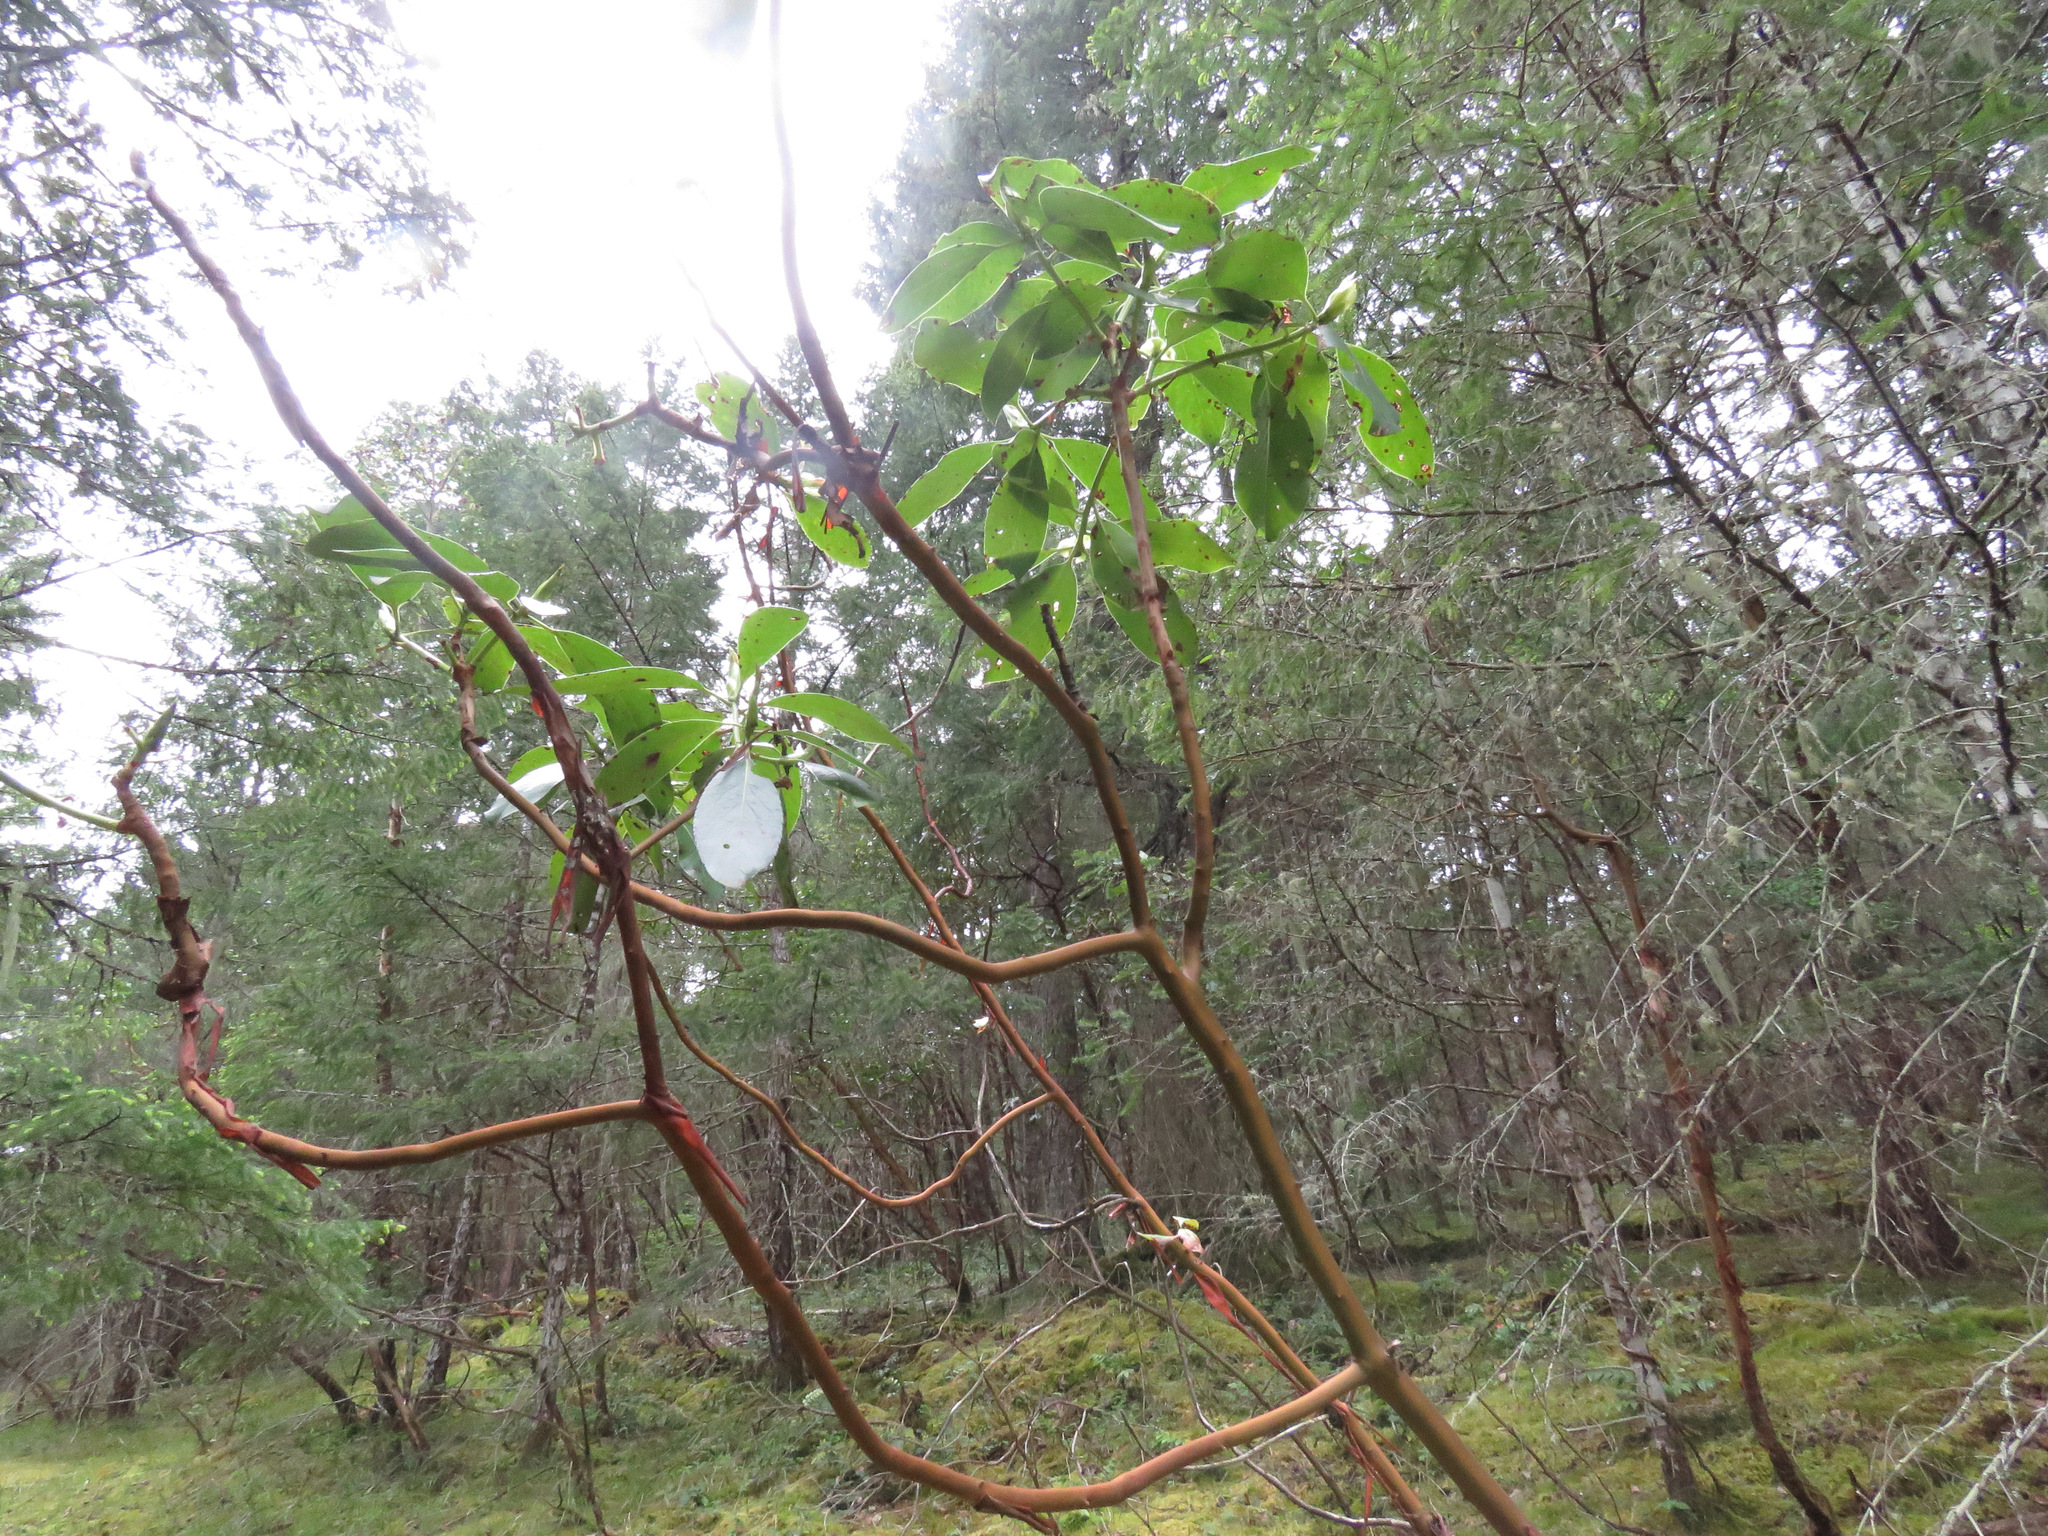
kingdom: Plantae
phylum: Tracheophyta
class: Magnoliopsida
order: Ericales
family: Ericaceae
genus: Arbutus
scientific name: Arbutus menziesii
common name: Pacific madrone
